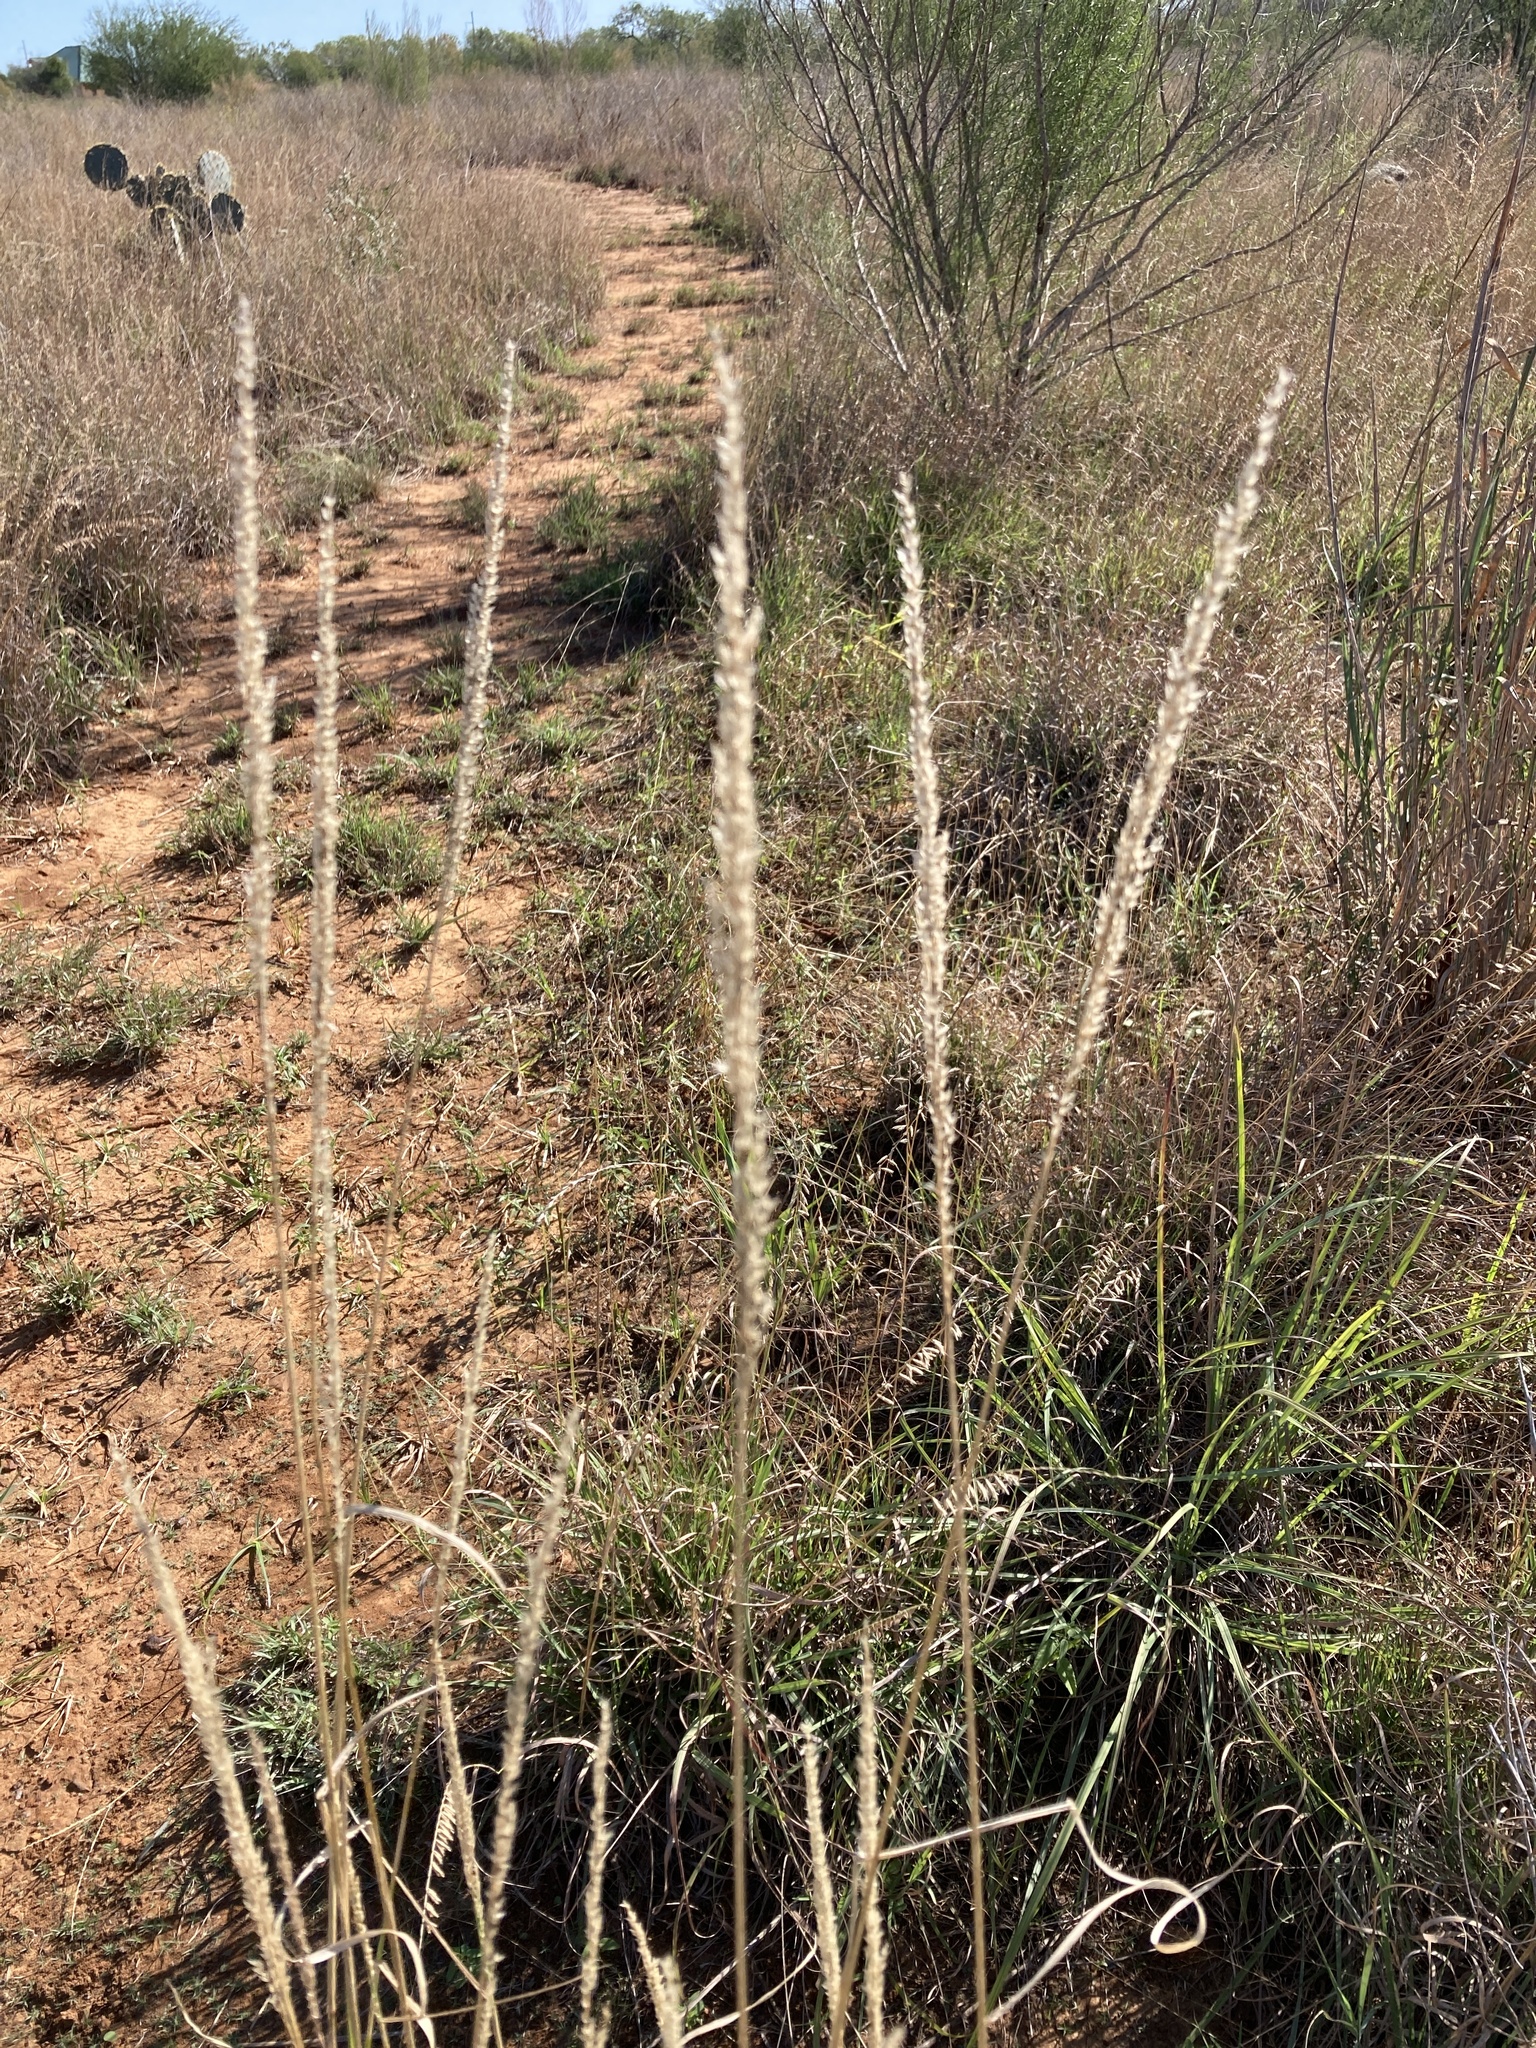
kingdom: Plantae
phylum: Tracheophyta
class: Liliopsida
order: Poales
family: Poaceae
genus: Tridens
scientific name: Tridens albescens
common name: White tridens
